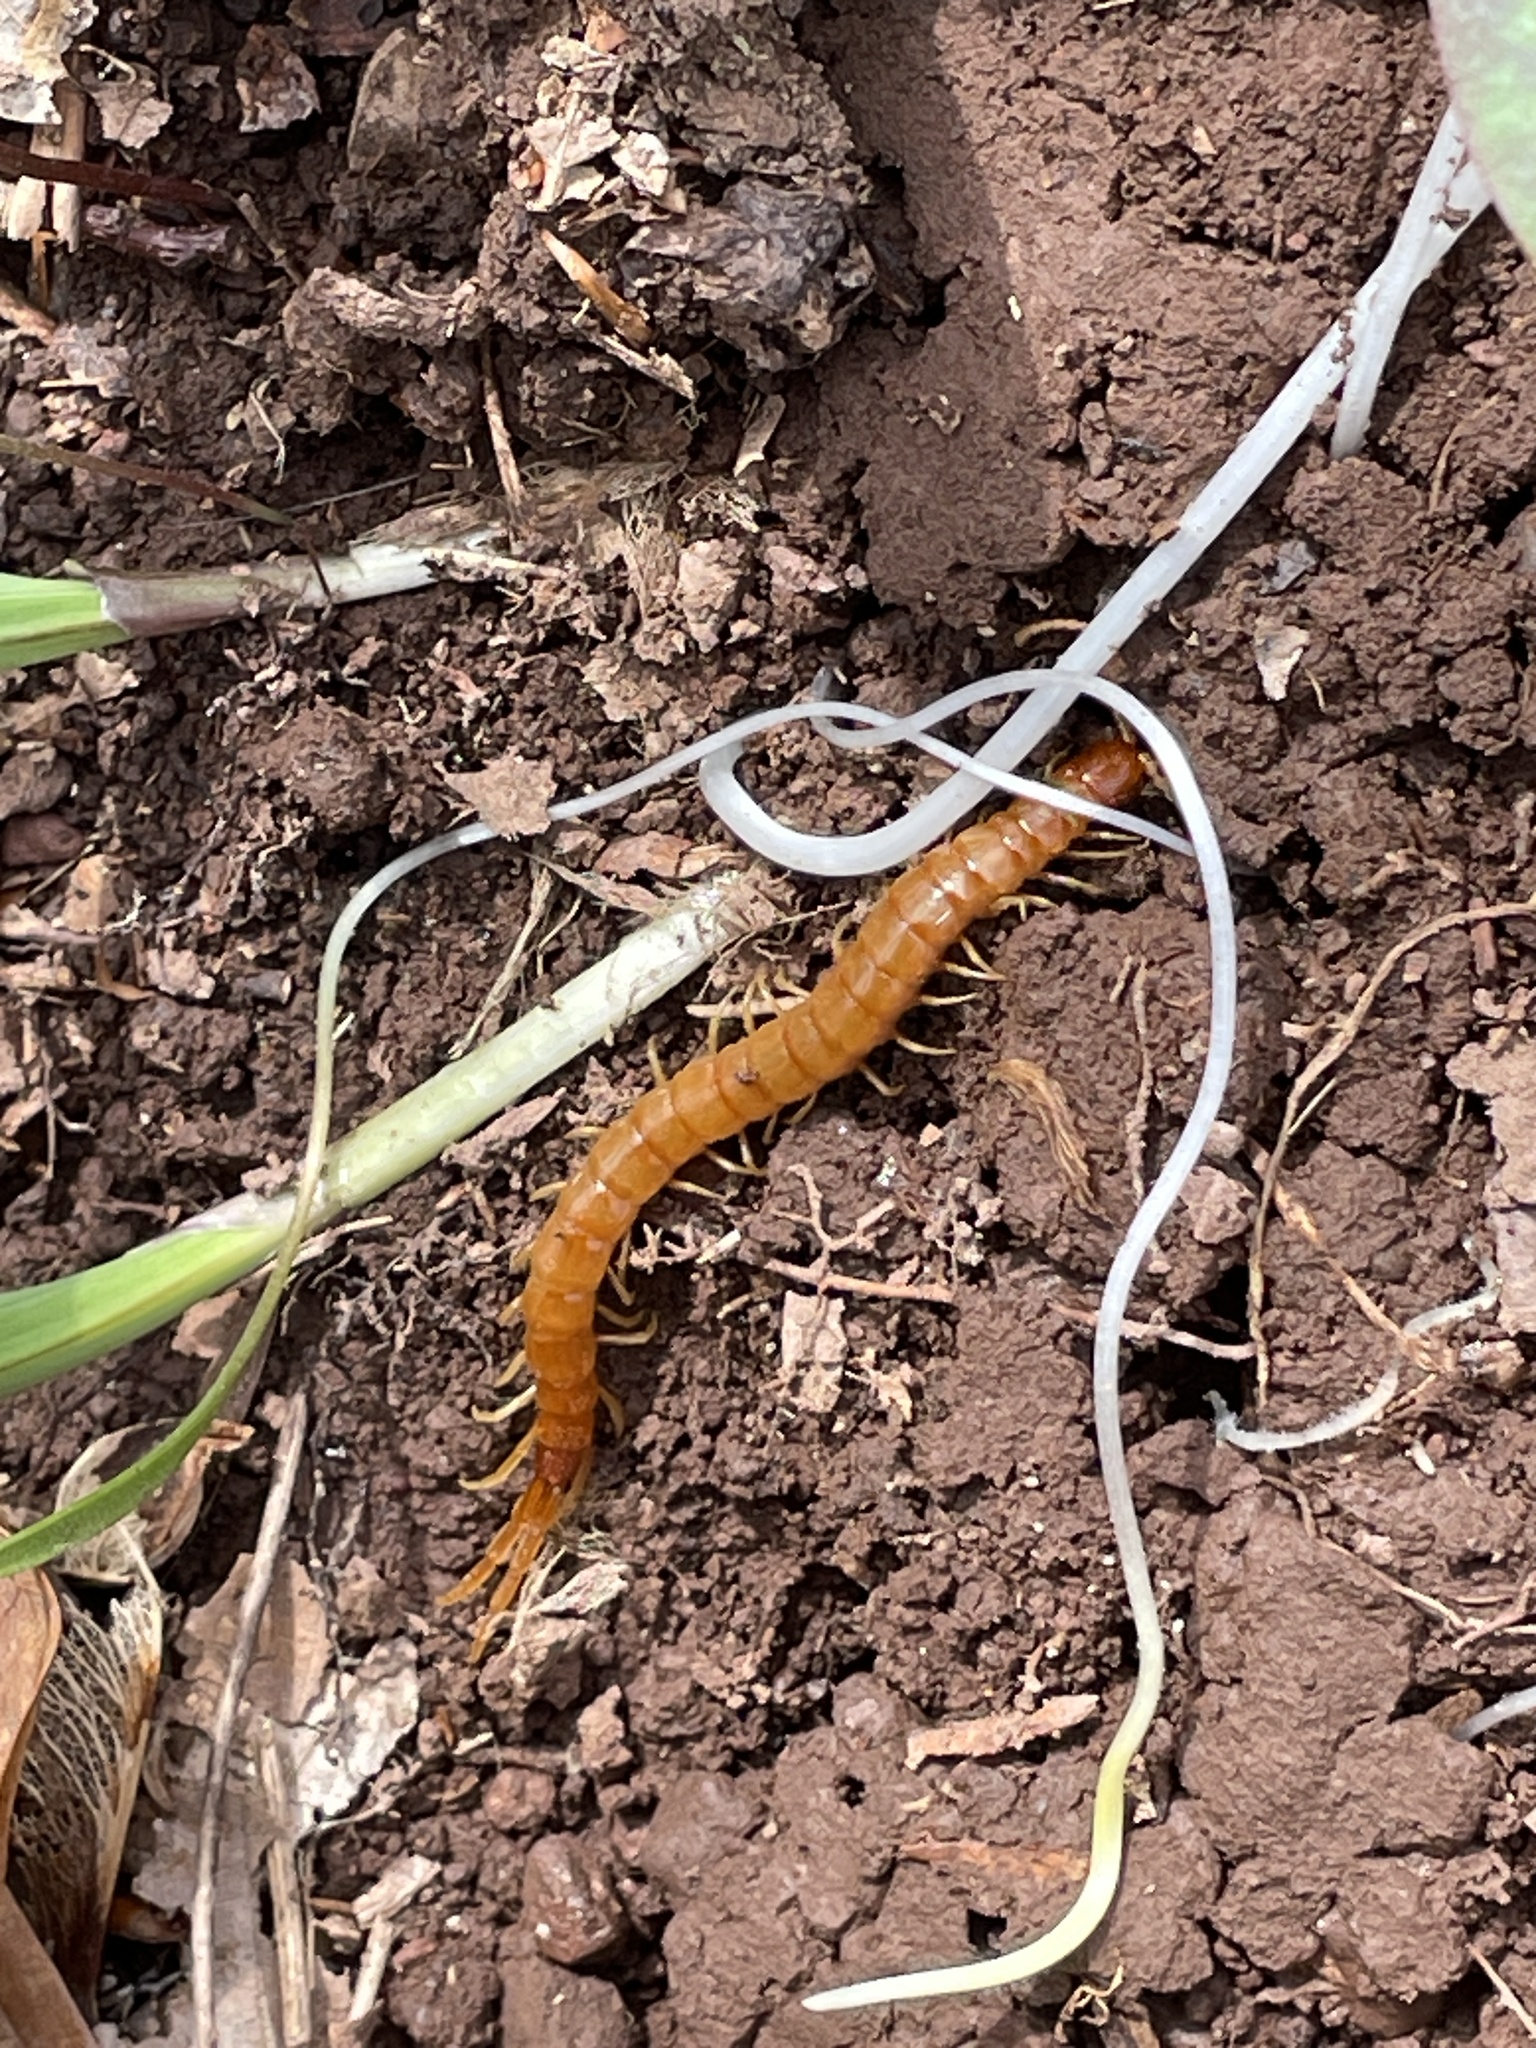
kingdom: Animalia
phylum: Arthropoda
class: Chilopoda
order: Scolopendromorpha
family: Scolopocryptopidae
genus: Scolopocryptops
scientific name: Scolopocryptops peregrinator
